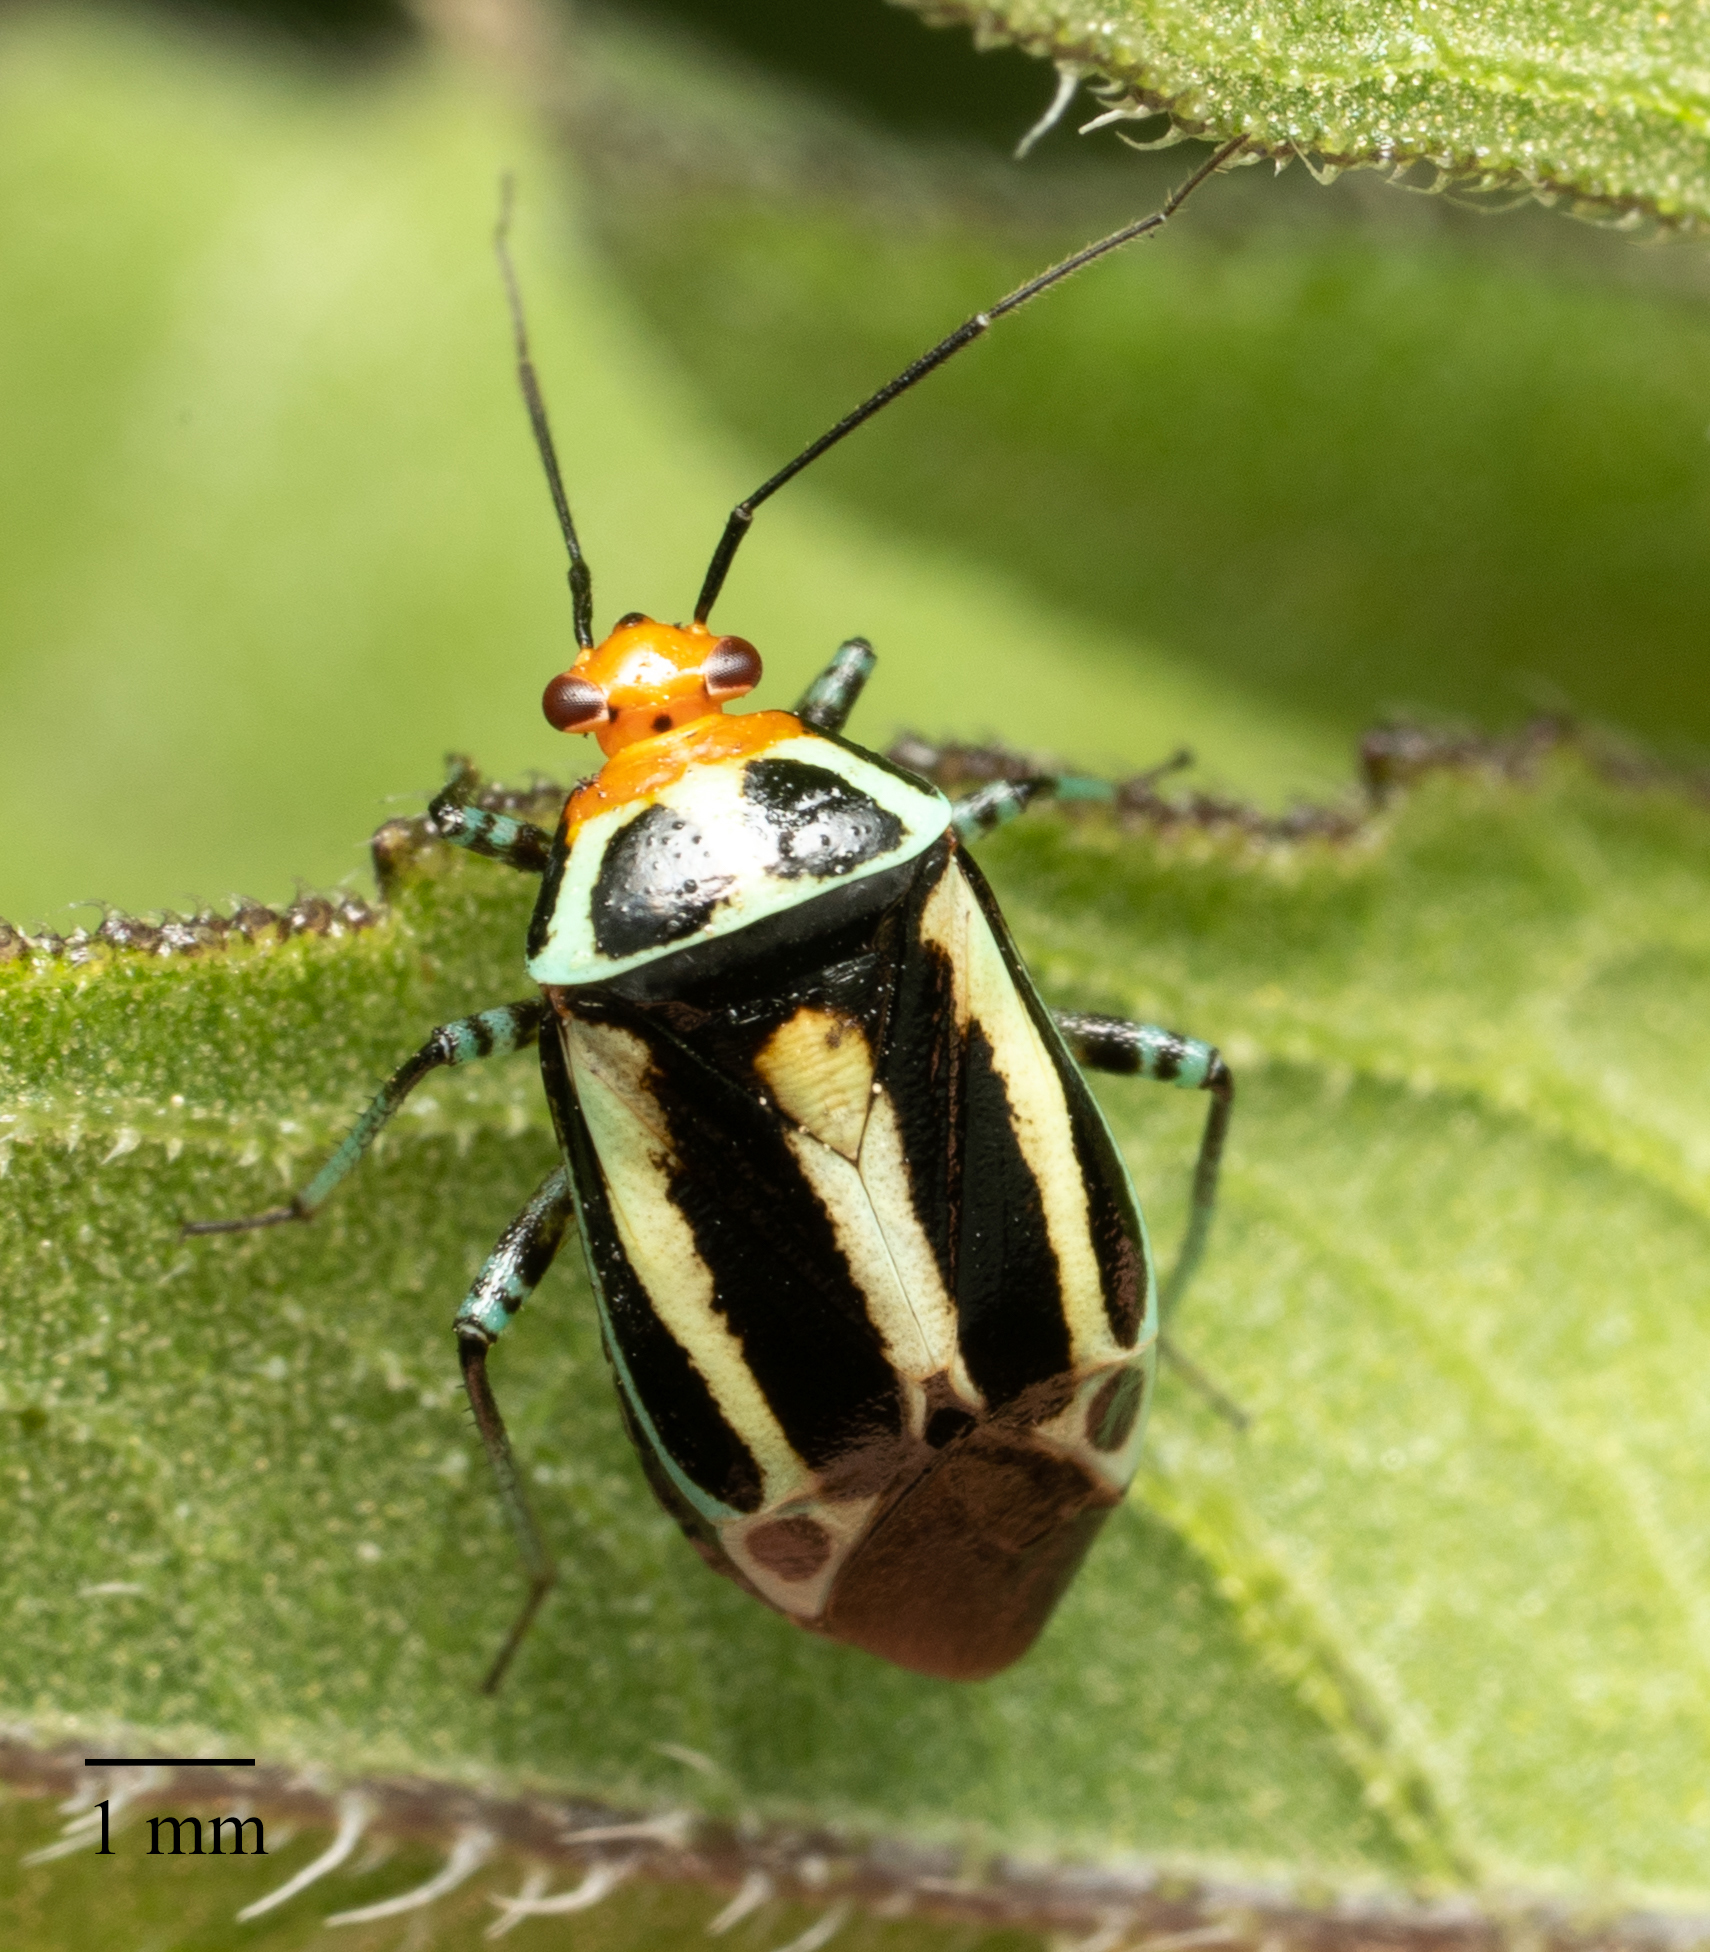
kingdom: Animalia
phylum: Arthropoda
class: Insecta
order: Hemiptera
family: Miridae
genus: Poecilocapsus
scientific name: Poecilocapsus lineatus
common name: Four-lined plant bug
